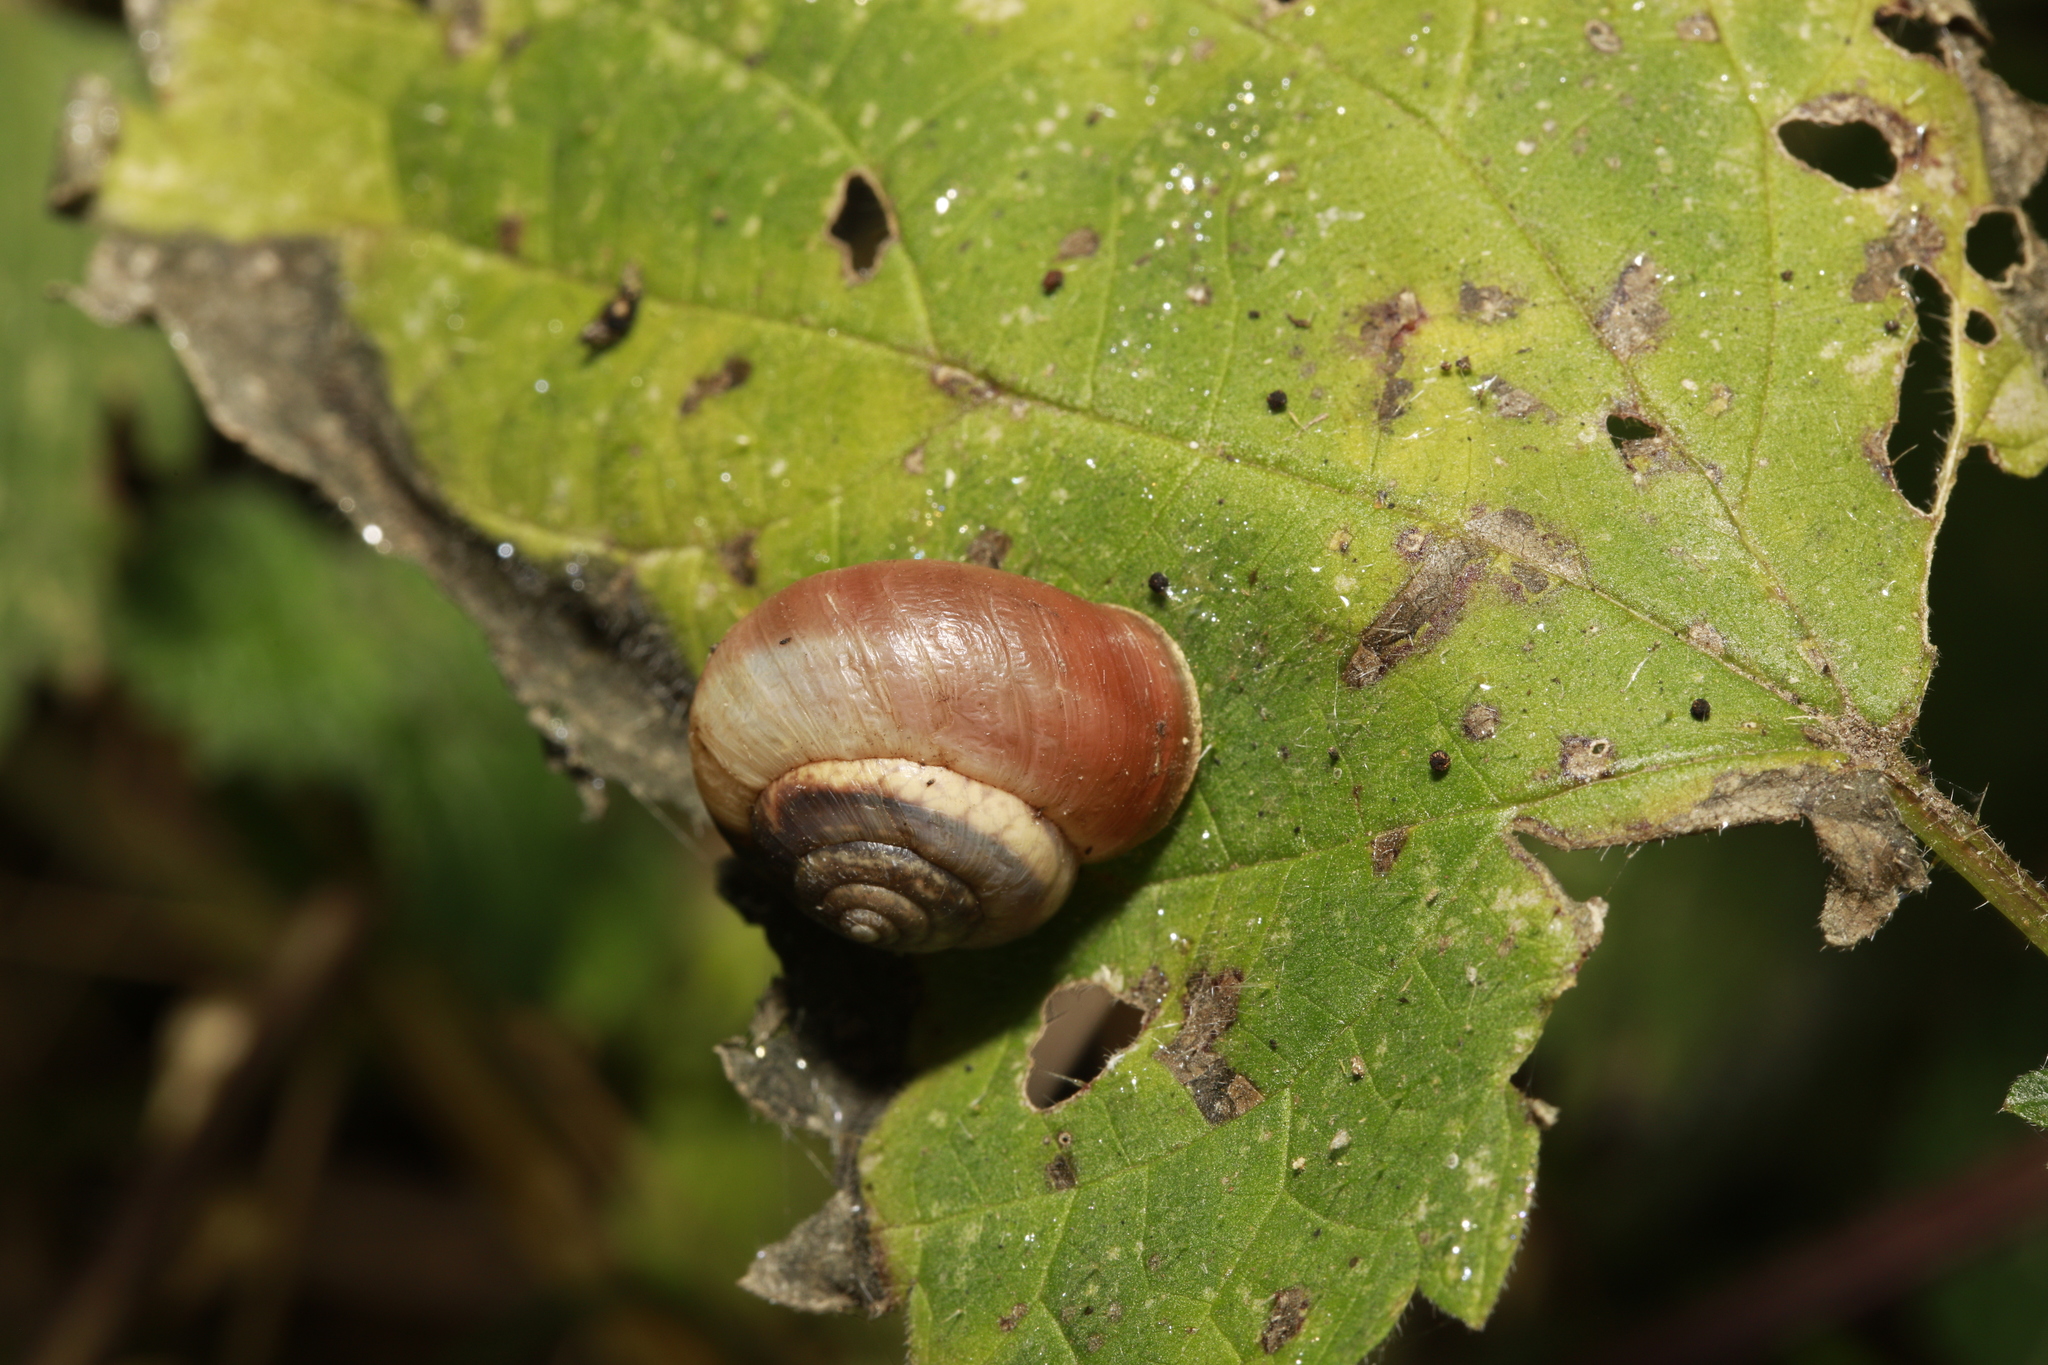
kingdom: Animalia
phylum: Mollusca
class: Gastropoda
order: Stylommatophora
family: Hygromiidae
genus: Monacha
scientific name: Monacha cantiana
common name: Kentish snail
